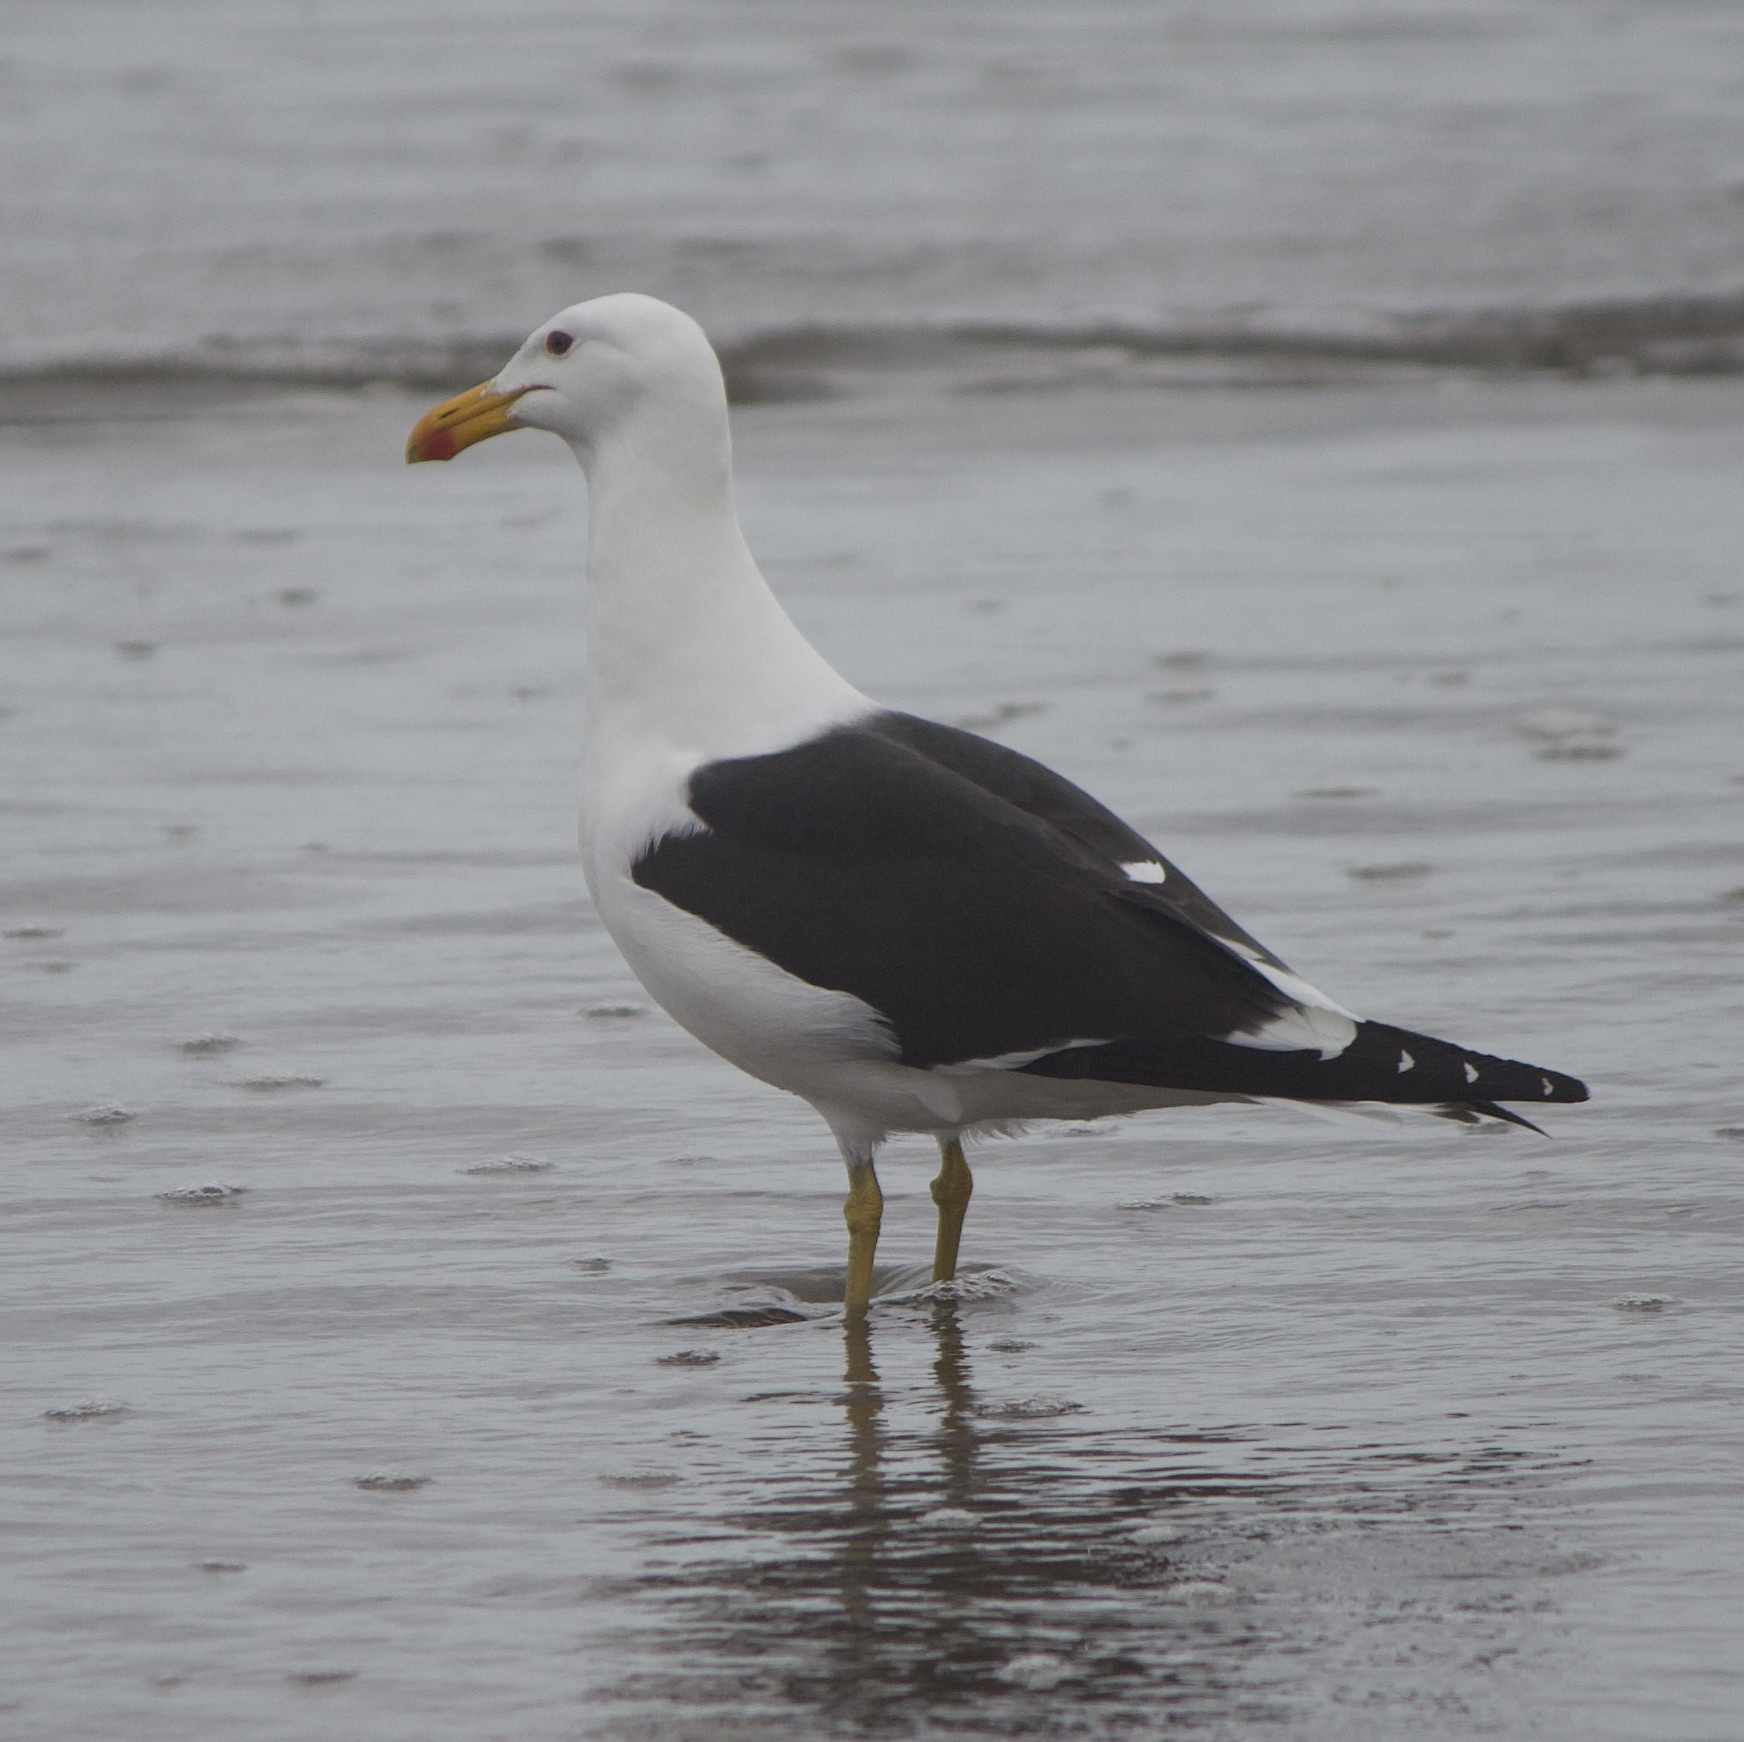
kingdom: Animalia
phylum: Chordata
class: Aves
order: Charadriiformes
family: Laridae
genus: Larus
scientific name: Larus dominicanus
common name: Kelp gull
